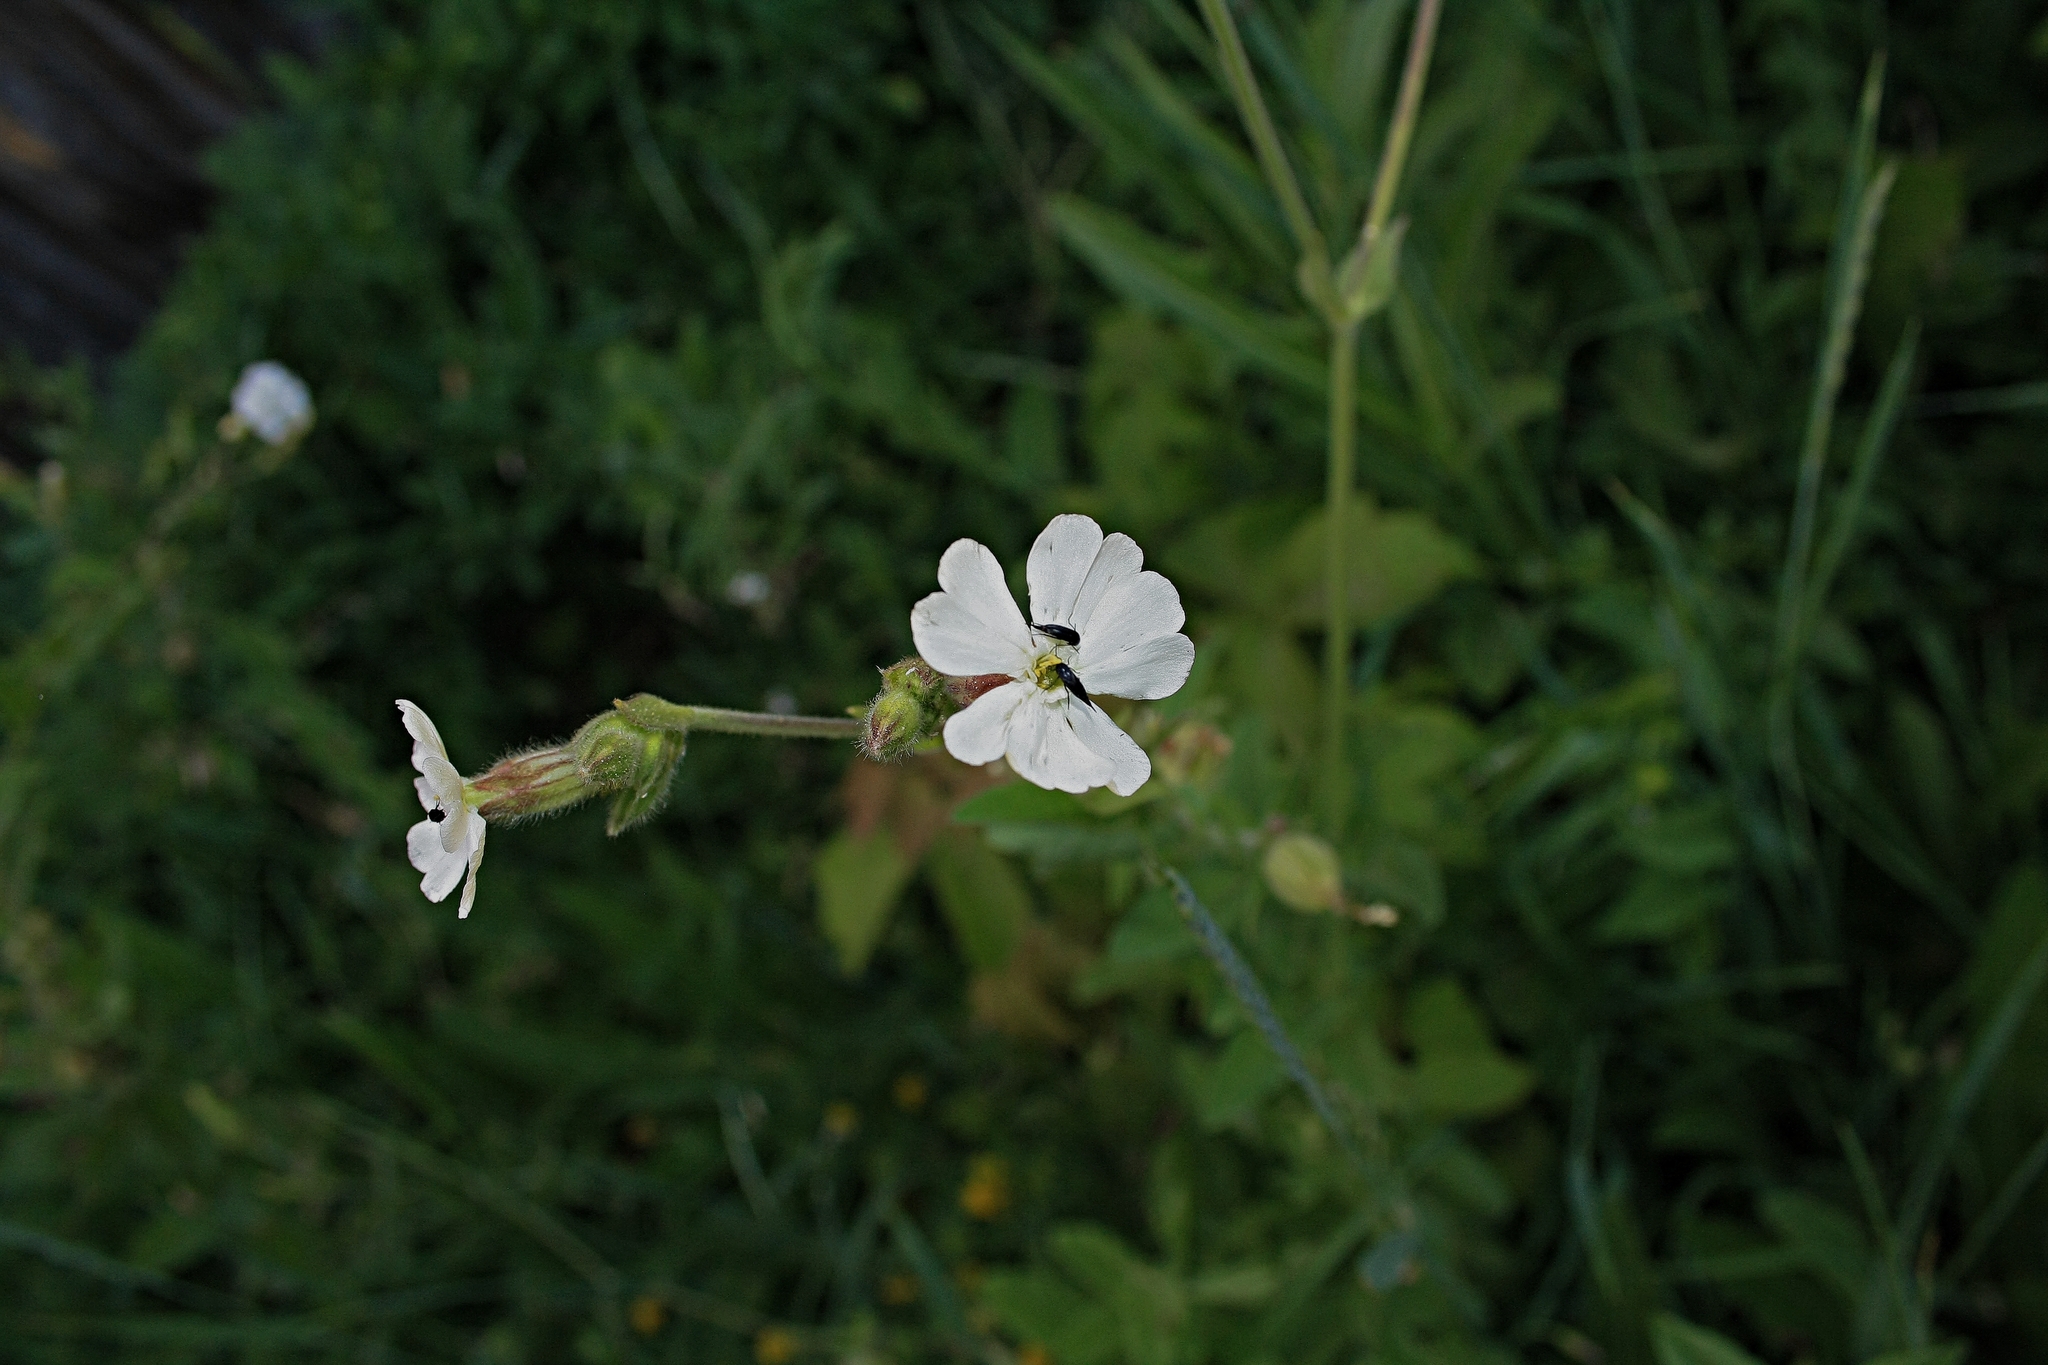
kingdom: Plantae
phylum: Tracheophyta
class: Magnoliopsida
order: Caryophyllales
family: Caryophyllaceae
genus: Silene
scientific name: Silene latifolia
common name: White campion
